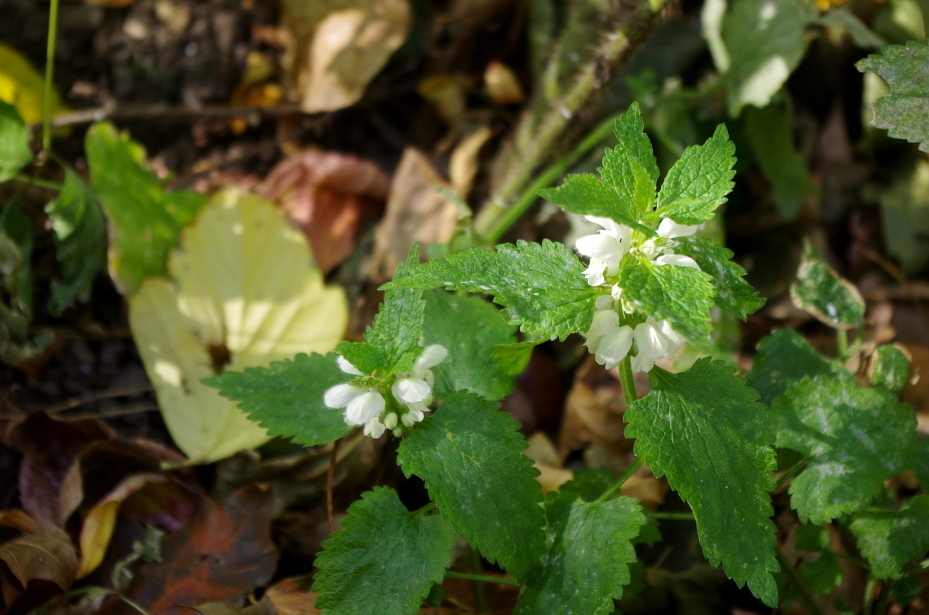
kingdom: Plantae
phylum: Tracheophyta
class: Magnoliopsida
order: Lamiales
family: Lamiaceae
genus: Lamium
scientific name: Lamium album
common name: White dead-nettle
